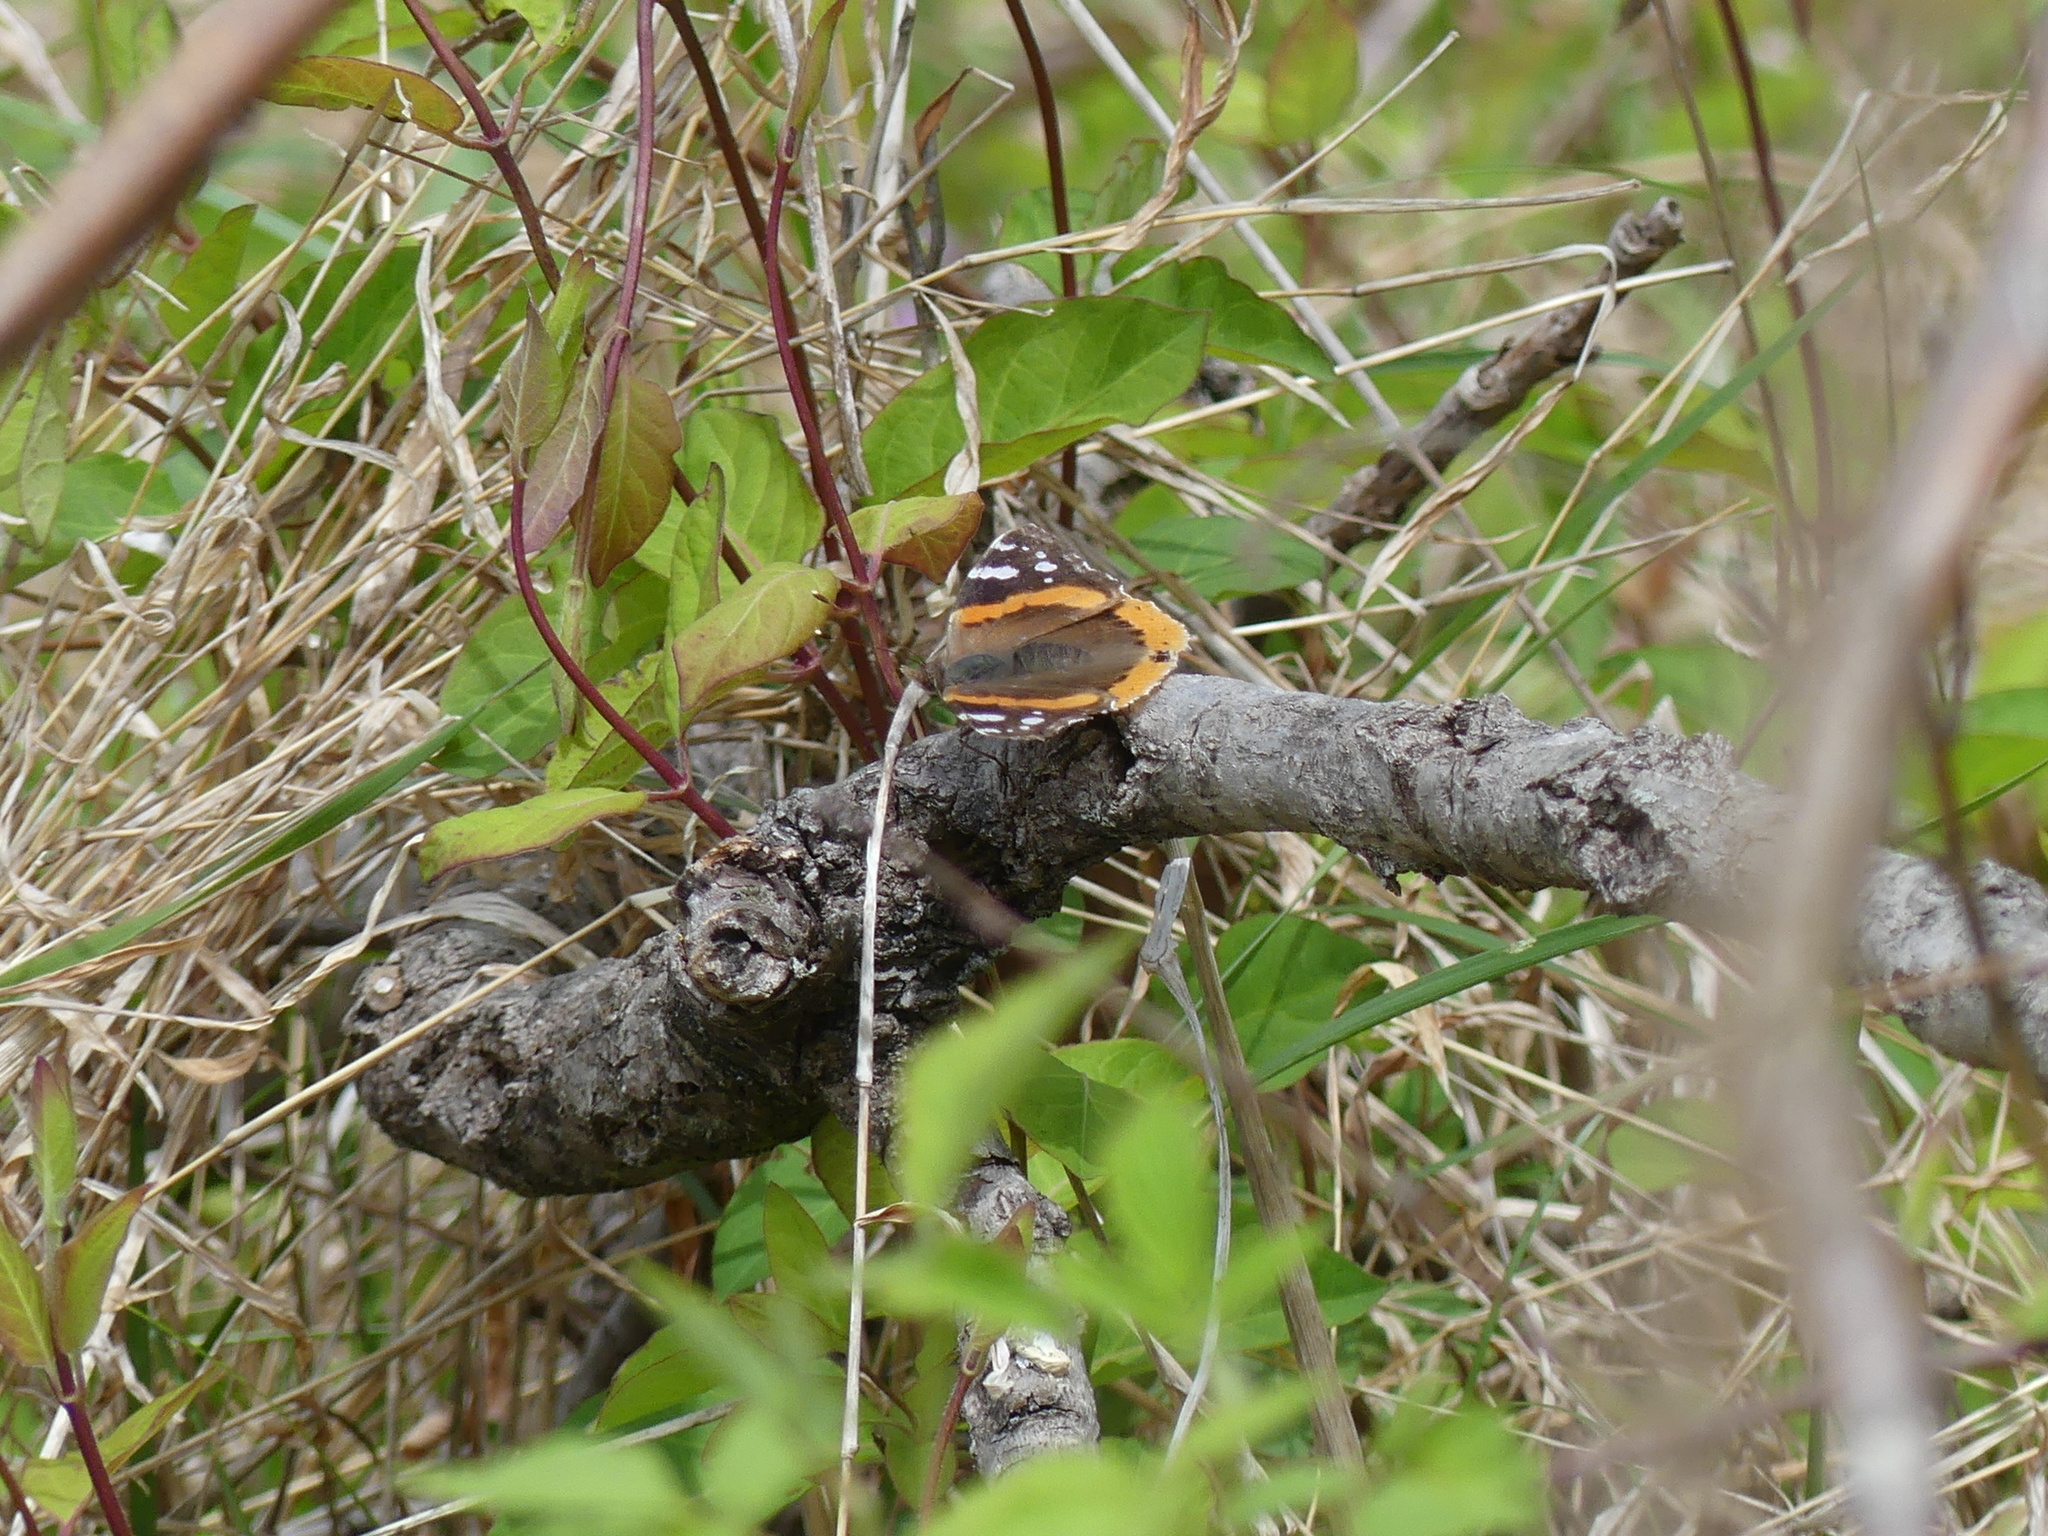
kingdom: Animalia
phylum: Arthropoda
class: Insecta
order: Lepidoptera
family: Nymphalidae
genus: Vanessa
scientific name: Vanessa atalanta
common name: Red admiral
